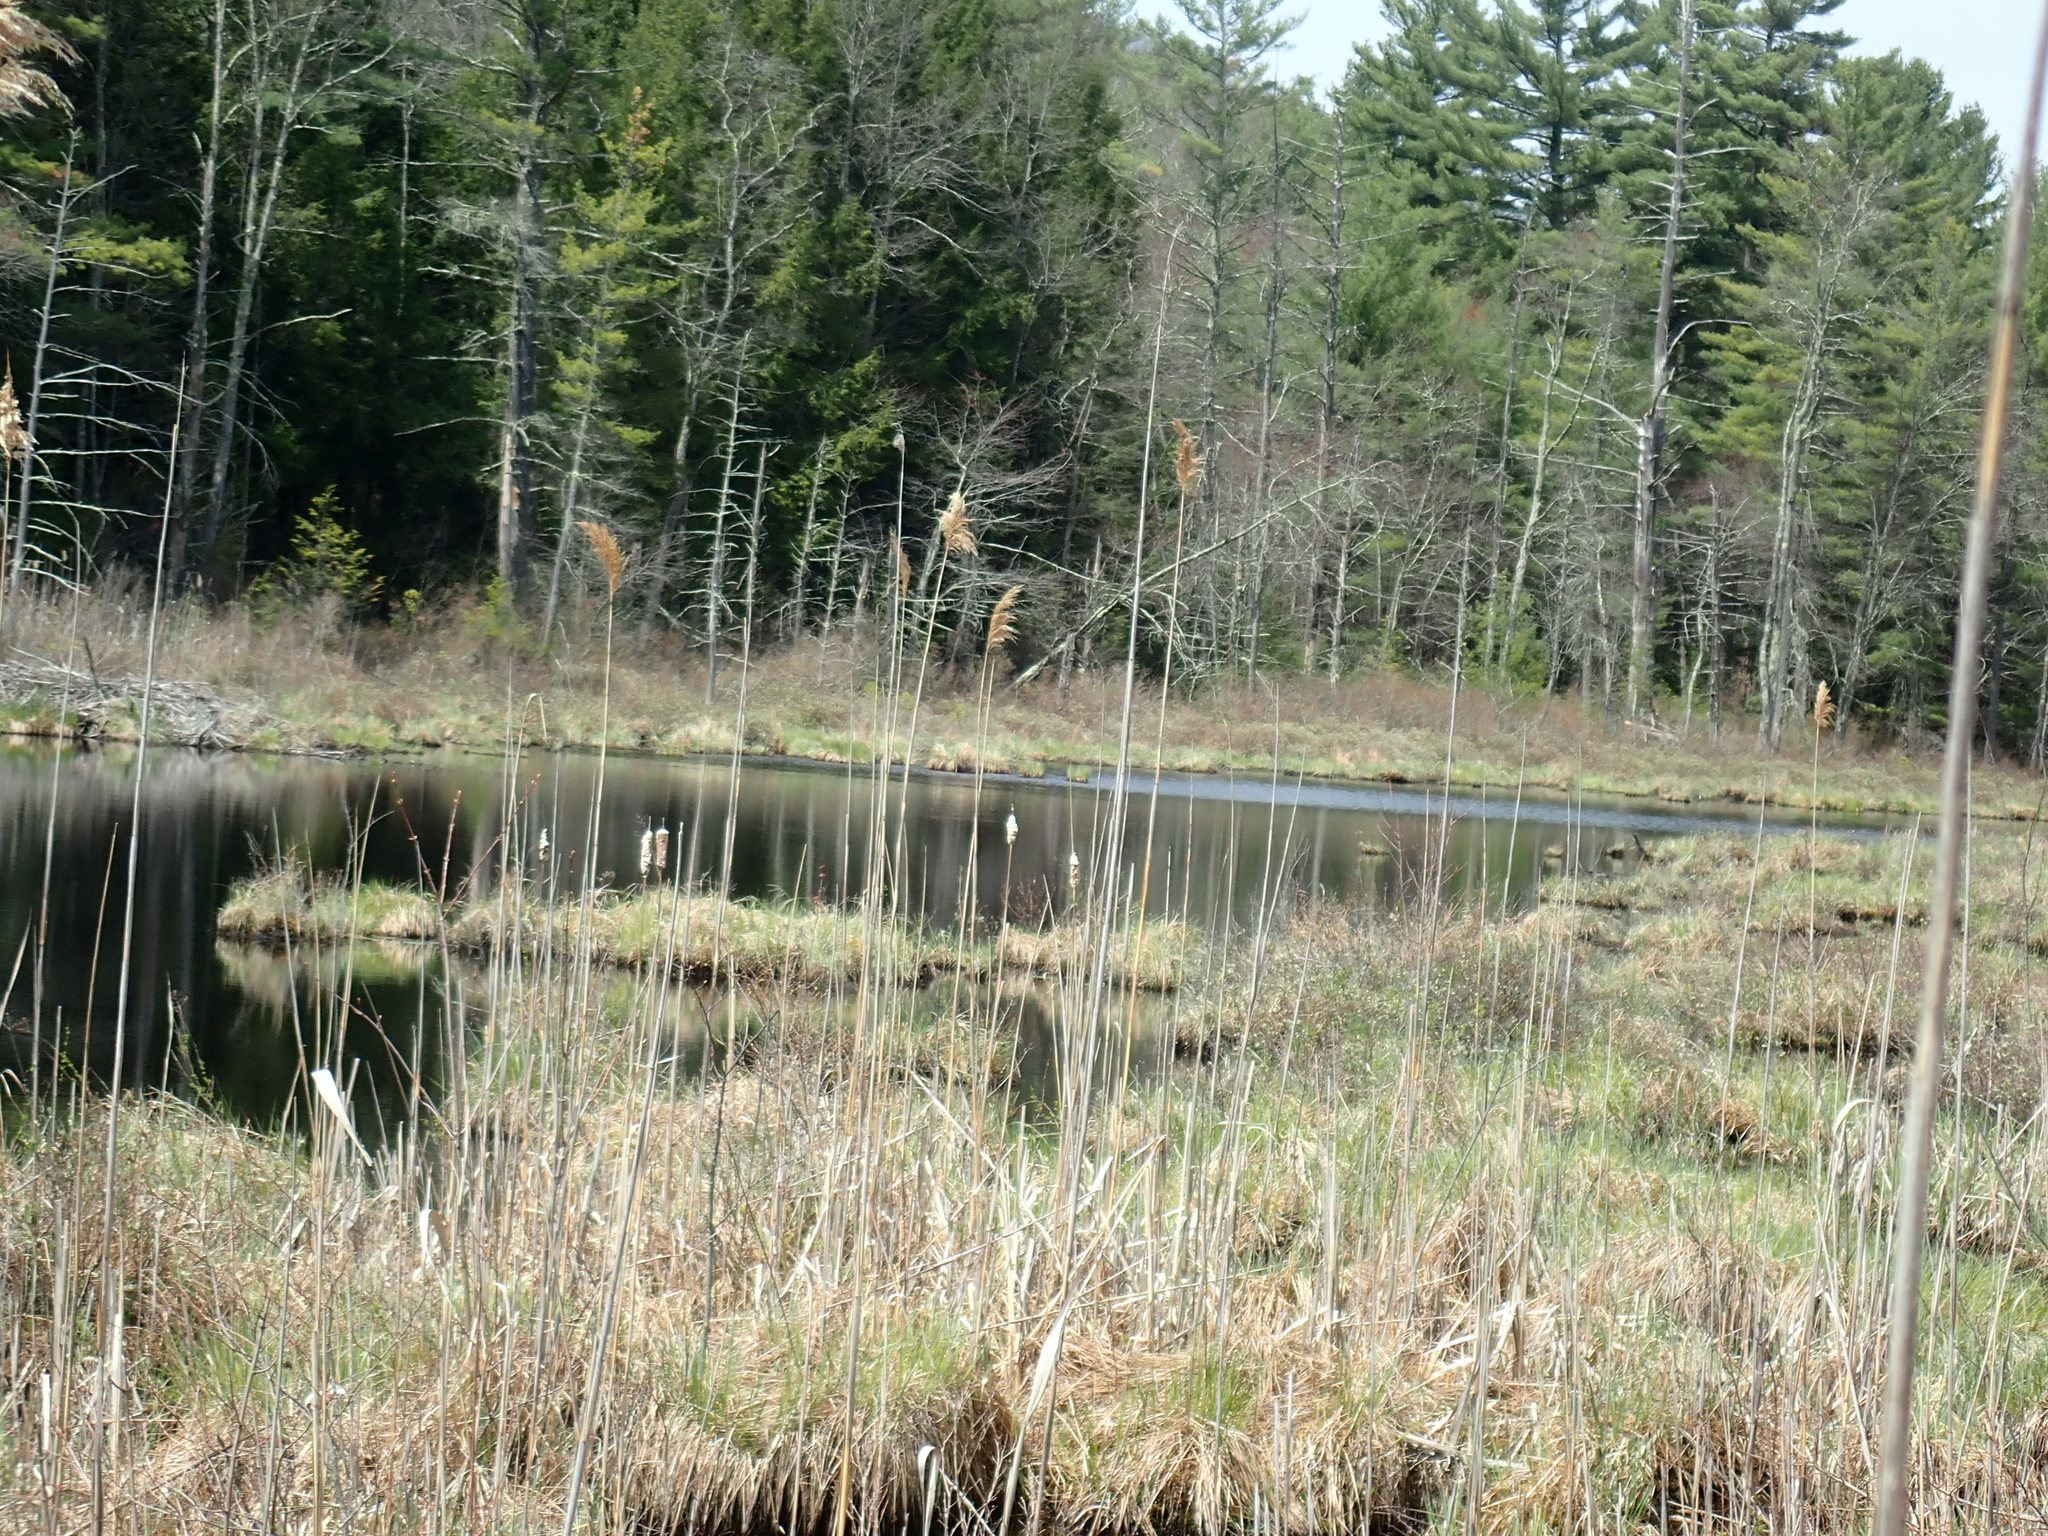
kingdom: Plantae
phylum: Tracheophyta
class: Liliopsida
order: Poales
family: Poaceae
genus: Phragmites
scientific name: Phragmites australis
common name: Common reed
